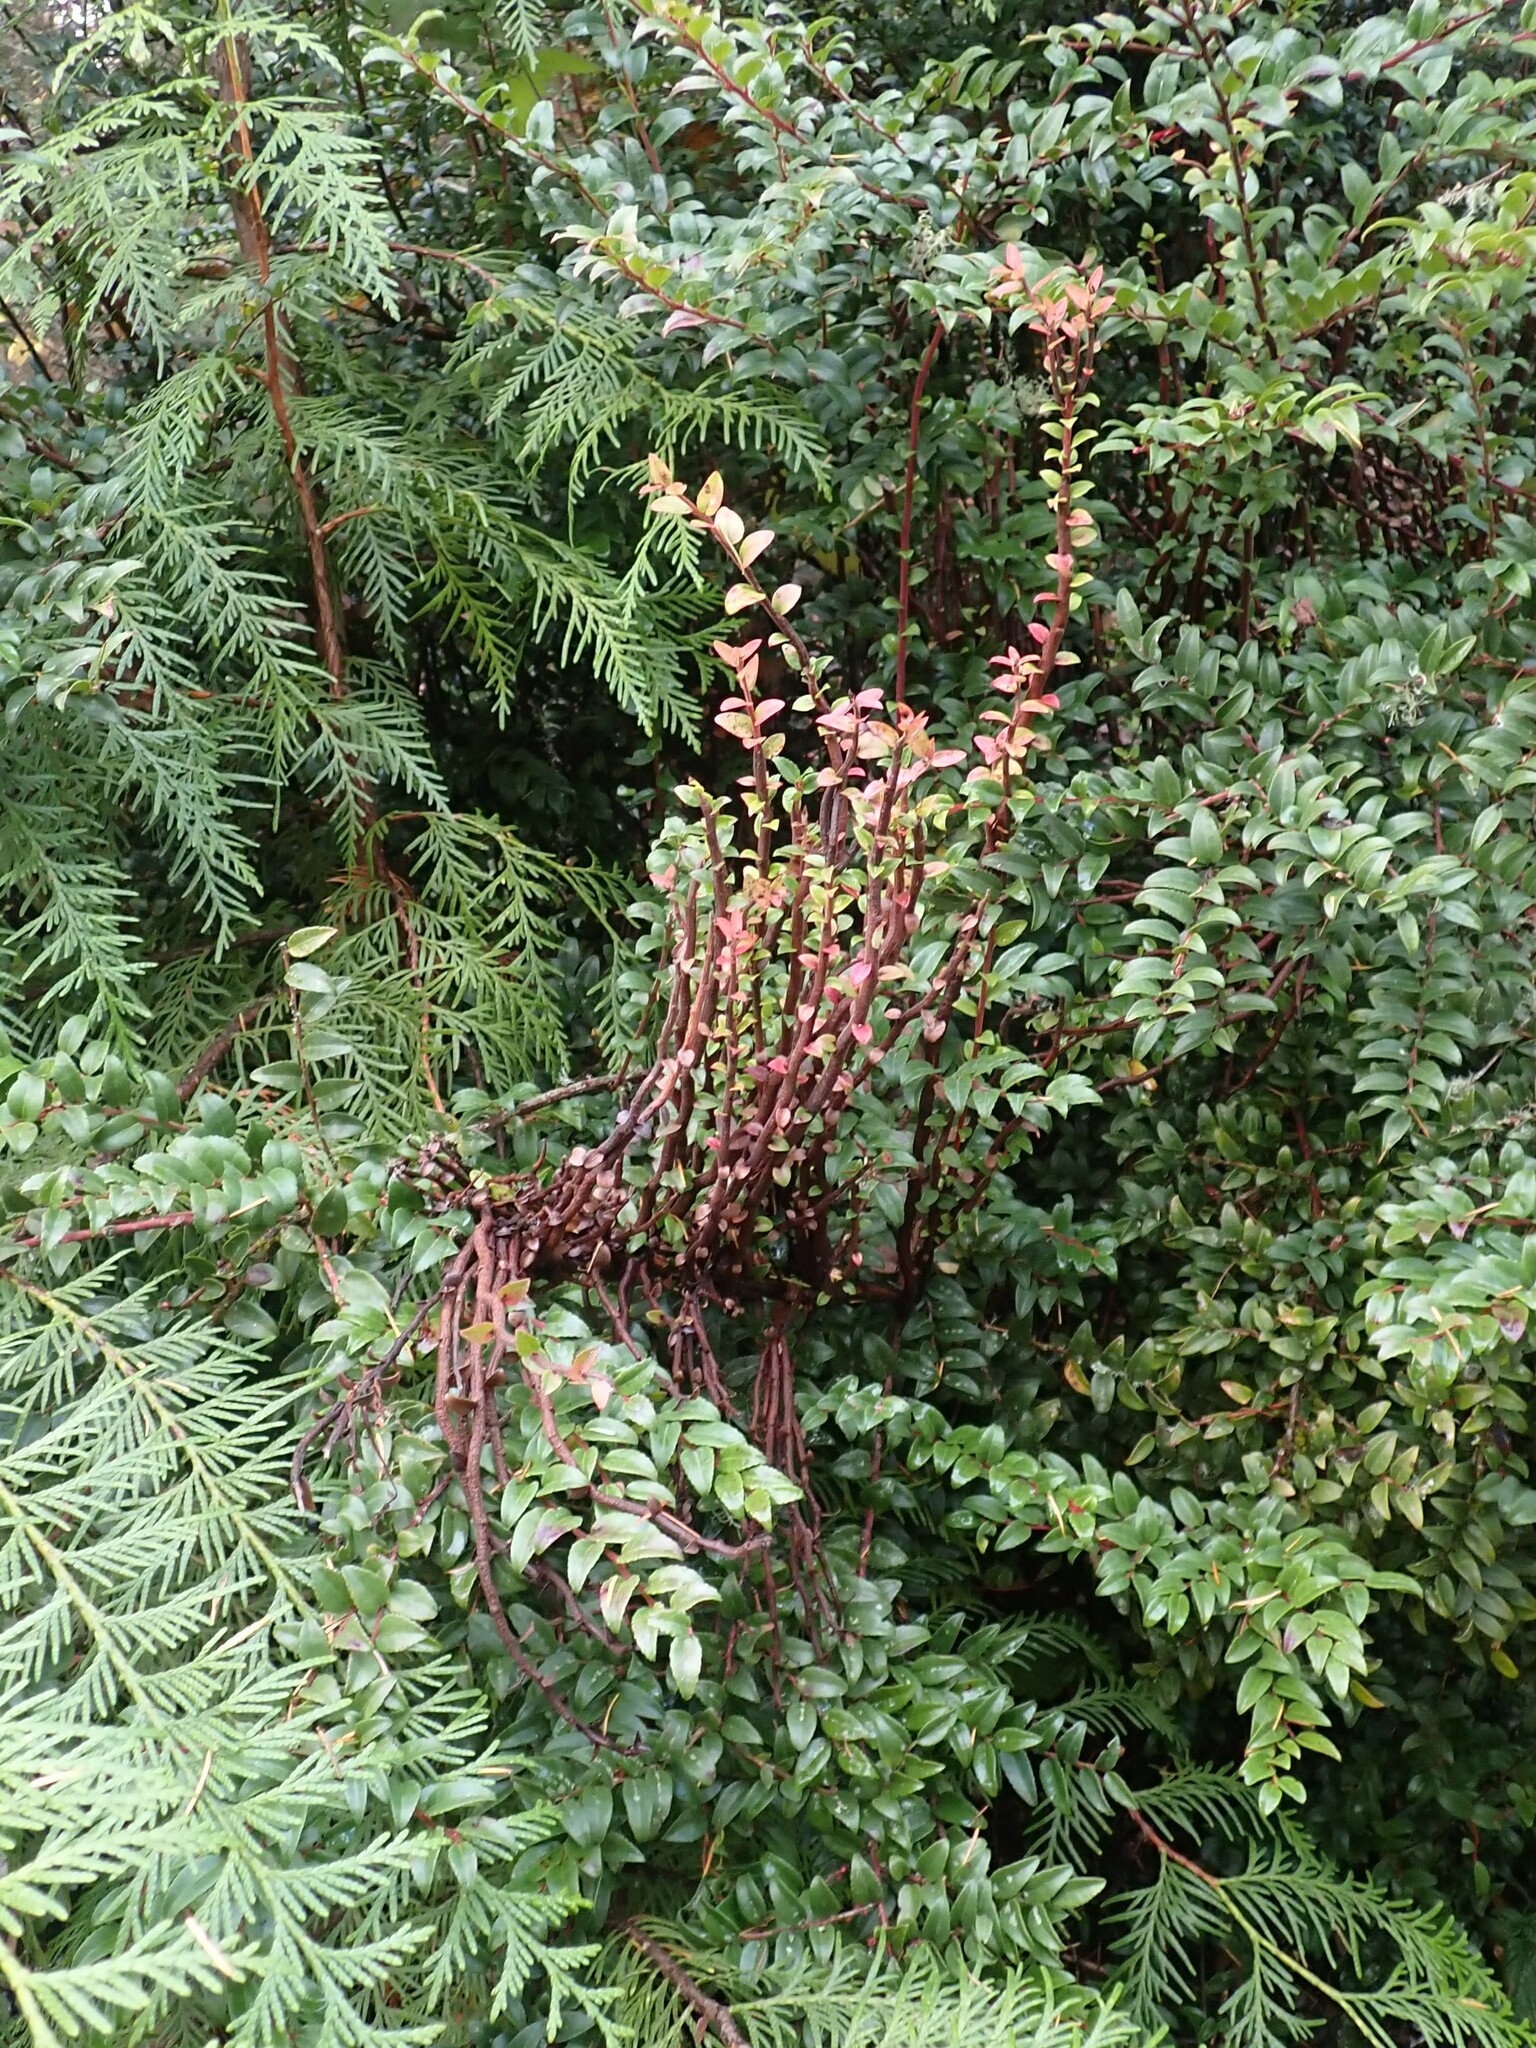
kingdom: Fungi
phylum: Basidiomycota
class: Pucciniomycetes
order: Pucciniales
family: Pucciniastraceae
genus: Calyptospora
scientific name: Calyptospora
